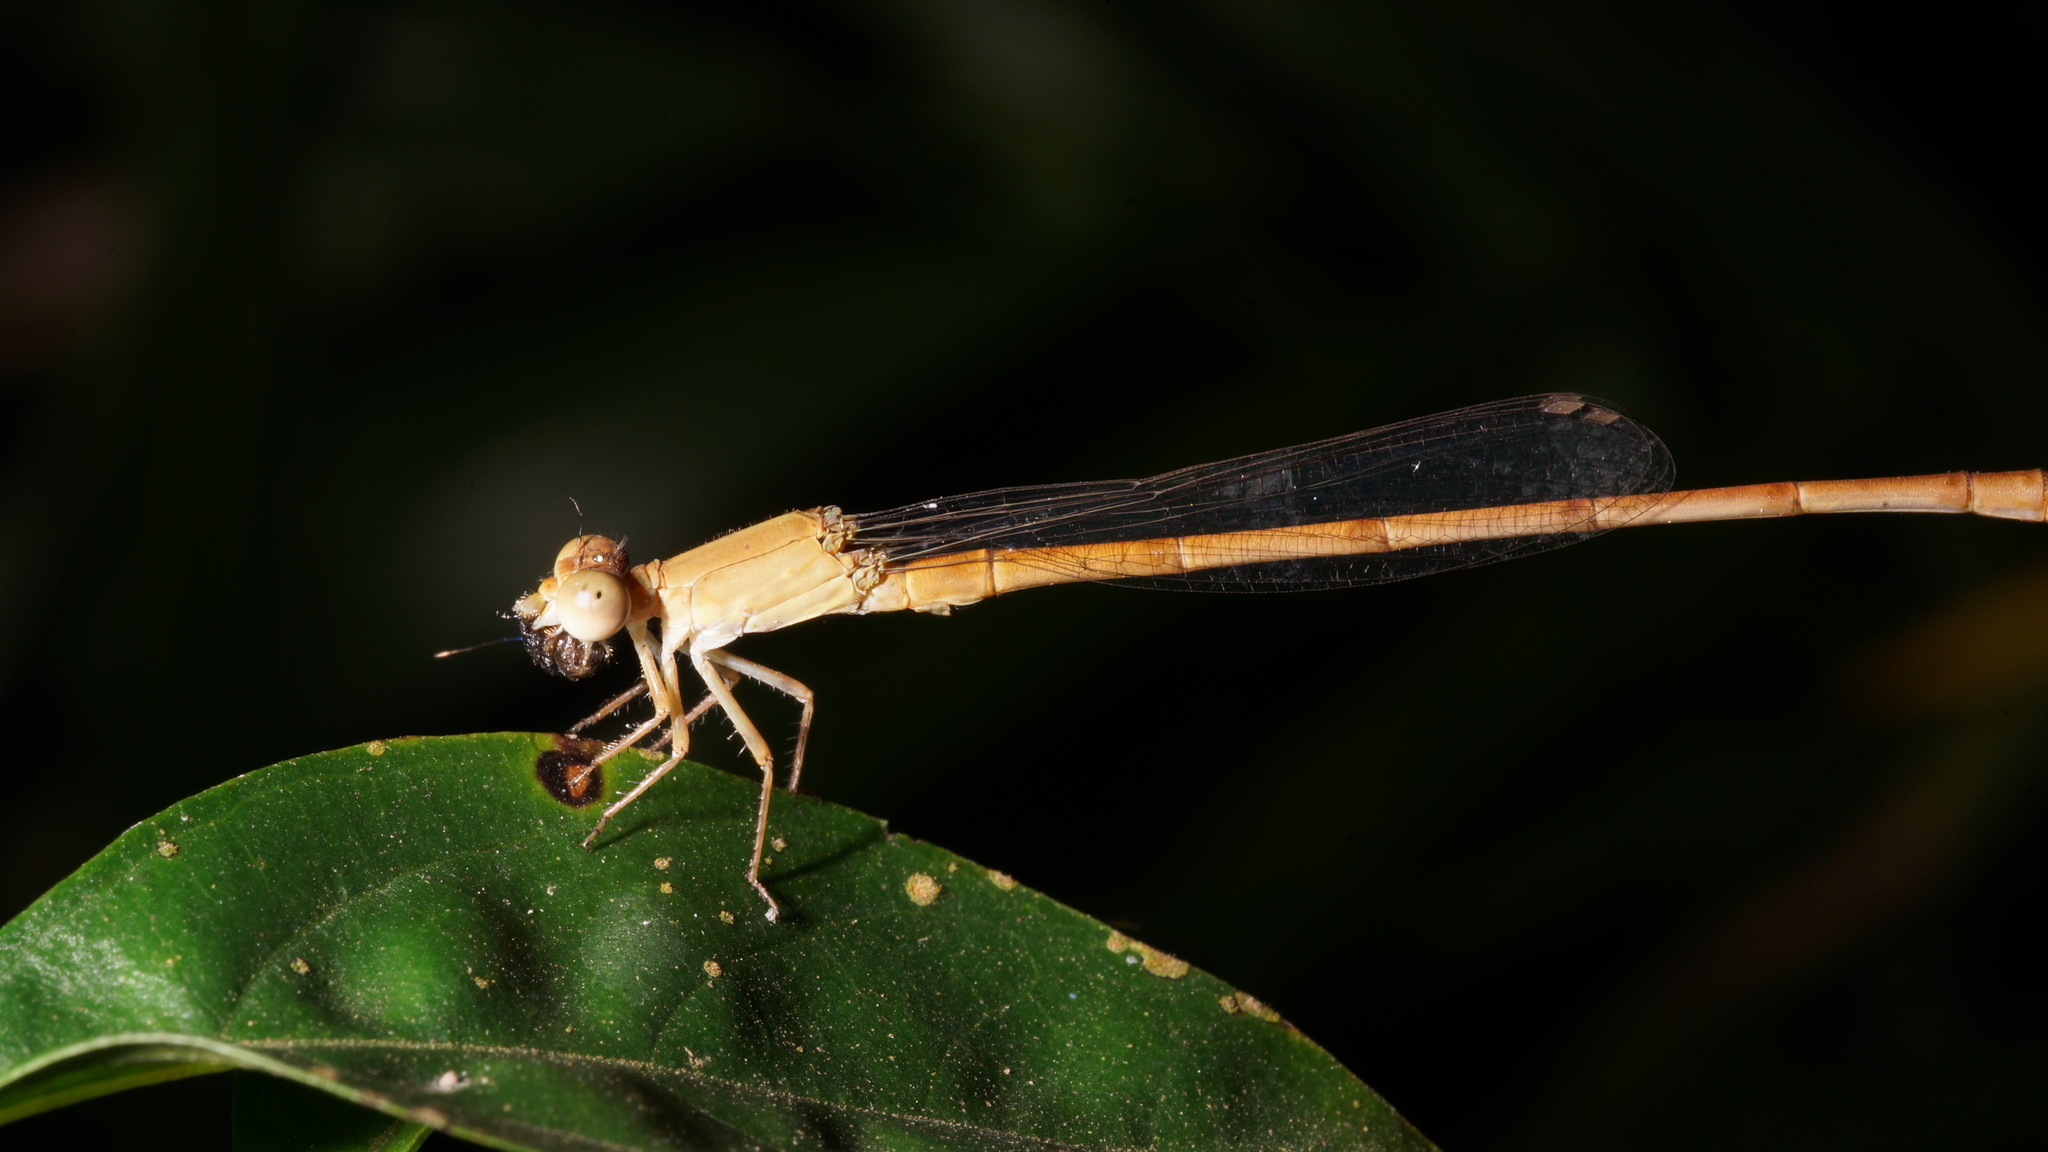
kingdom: Animalia
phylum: Arthropoda
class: Insecta
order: Odonata
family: Coenagrionidae
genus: Ceriagrion
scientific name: Ceriagrion olivaceum
